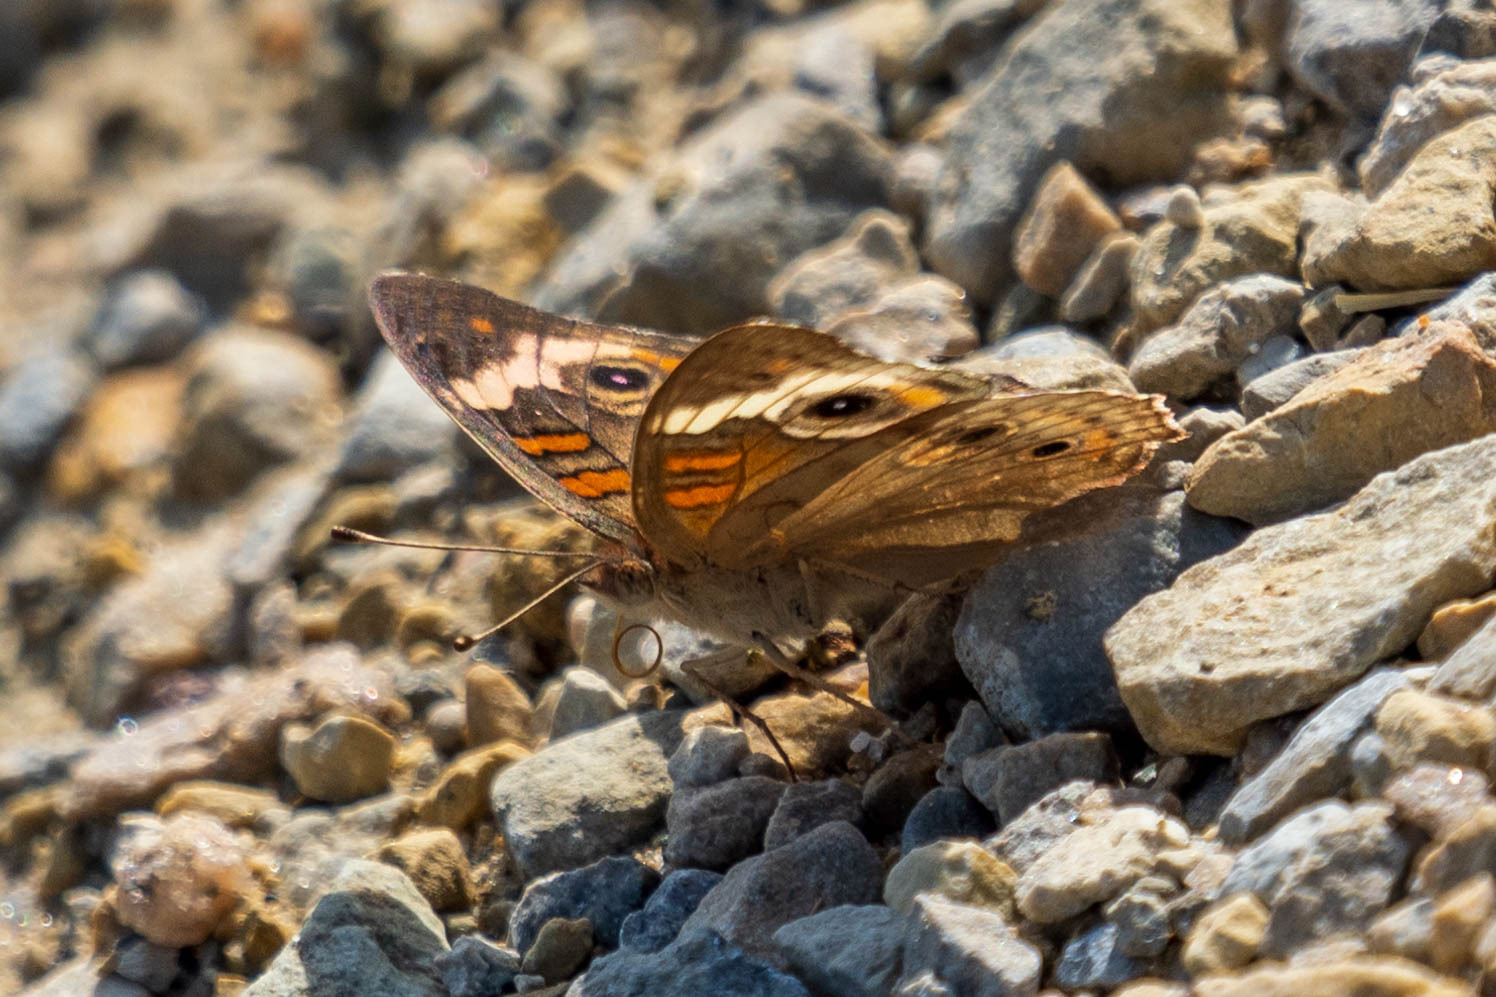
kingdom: Animalia
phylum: Arthropoda
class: Insecta
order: Lepidoptera
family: Nymphalidae
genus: Junonia
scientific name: Junonia coenia
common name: Common buckeye
